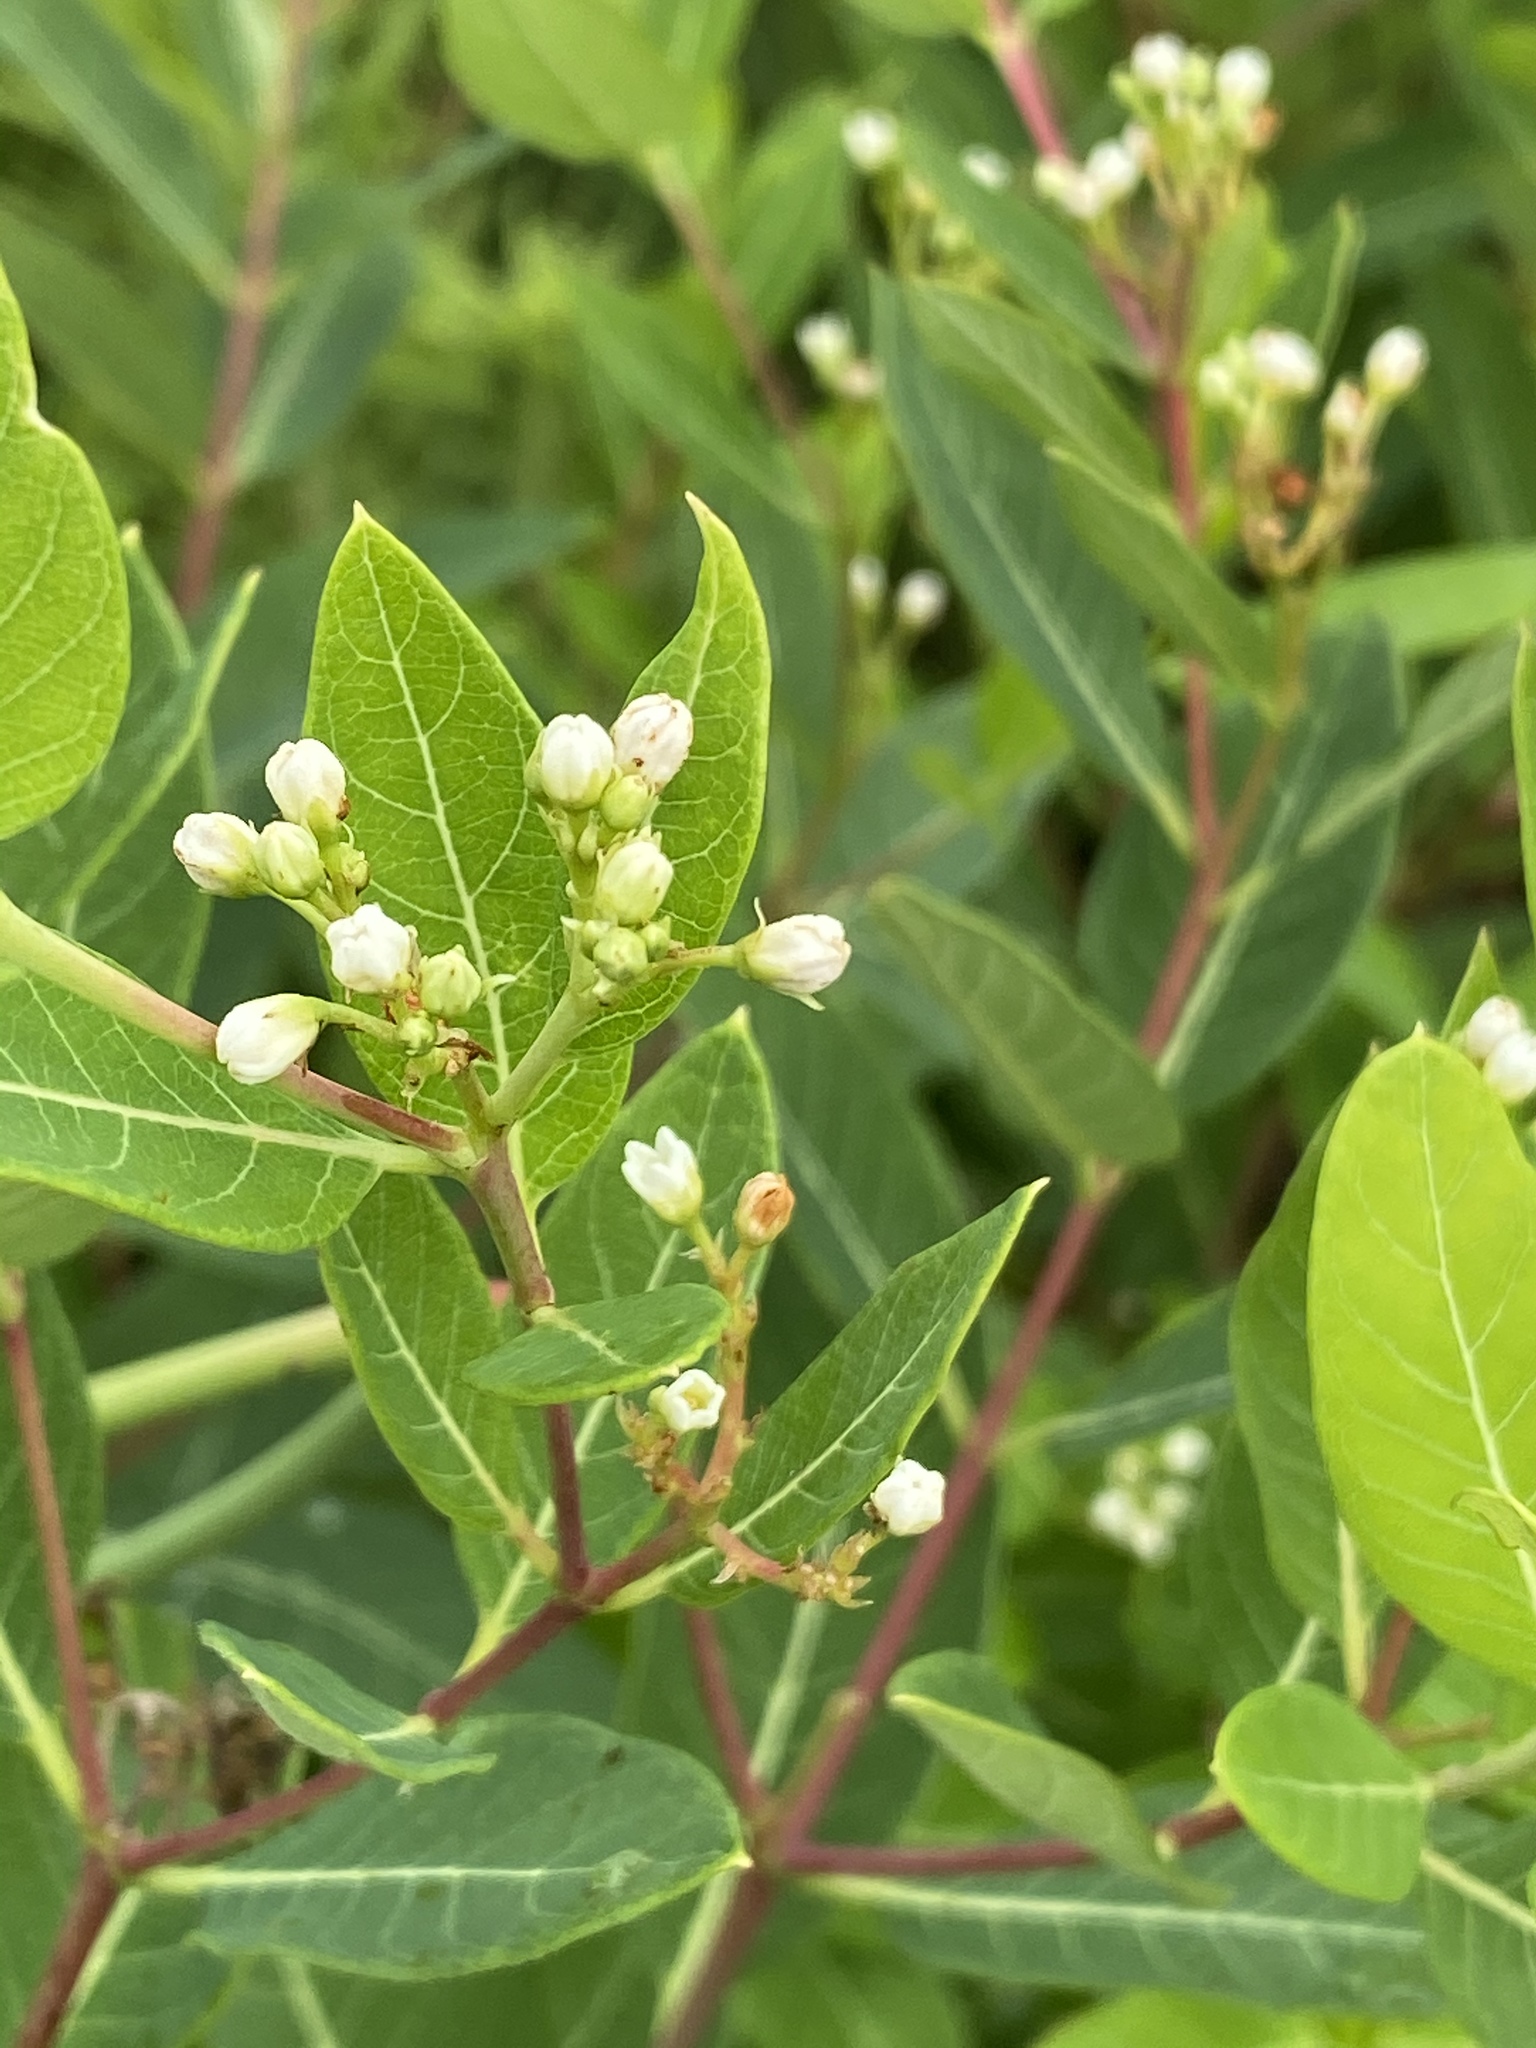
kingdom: Plantae
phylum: Tracheophyta
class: Magnoliopsida
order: Gentianales
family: Apocynaceae
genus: Apocynum
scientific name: Apocynum cannabinum
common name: Hemp dogbane
